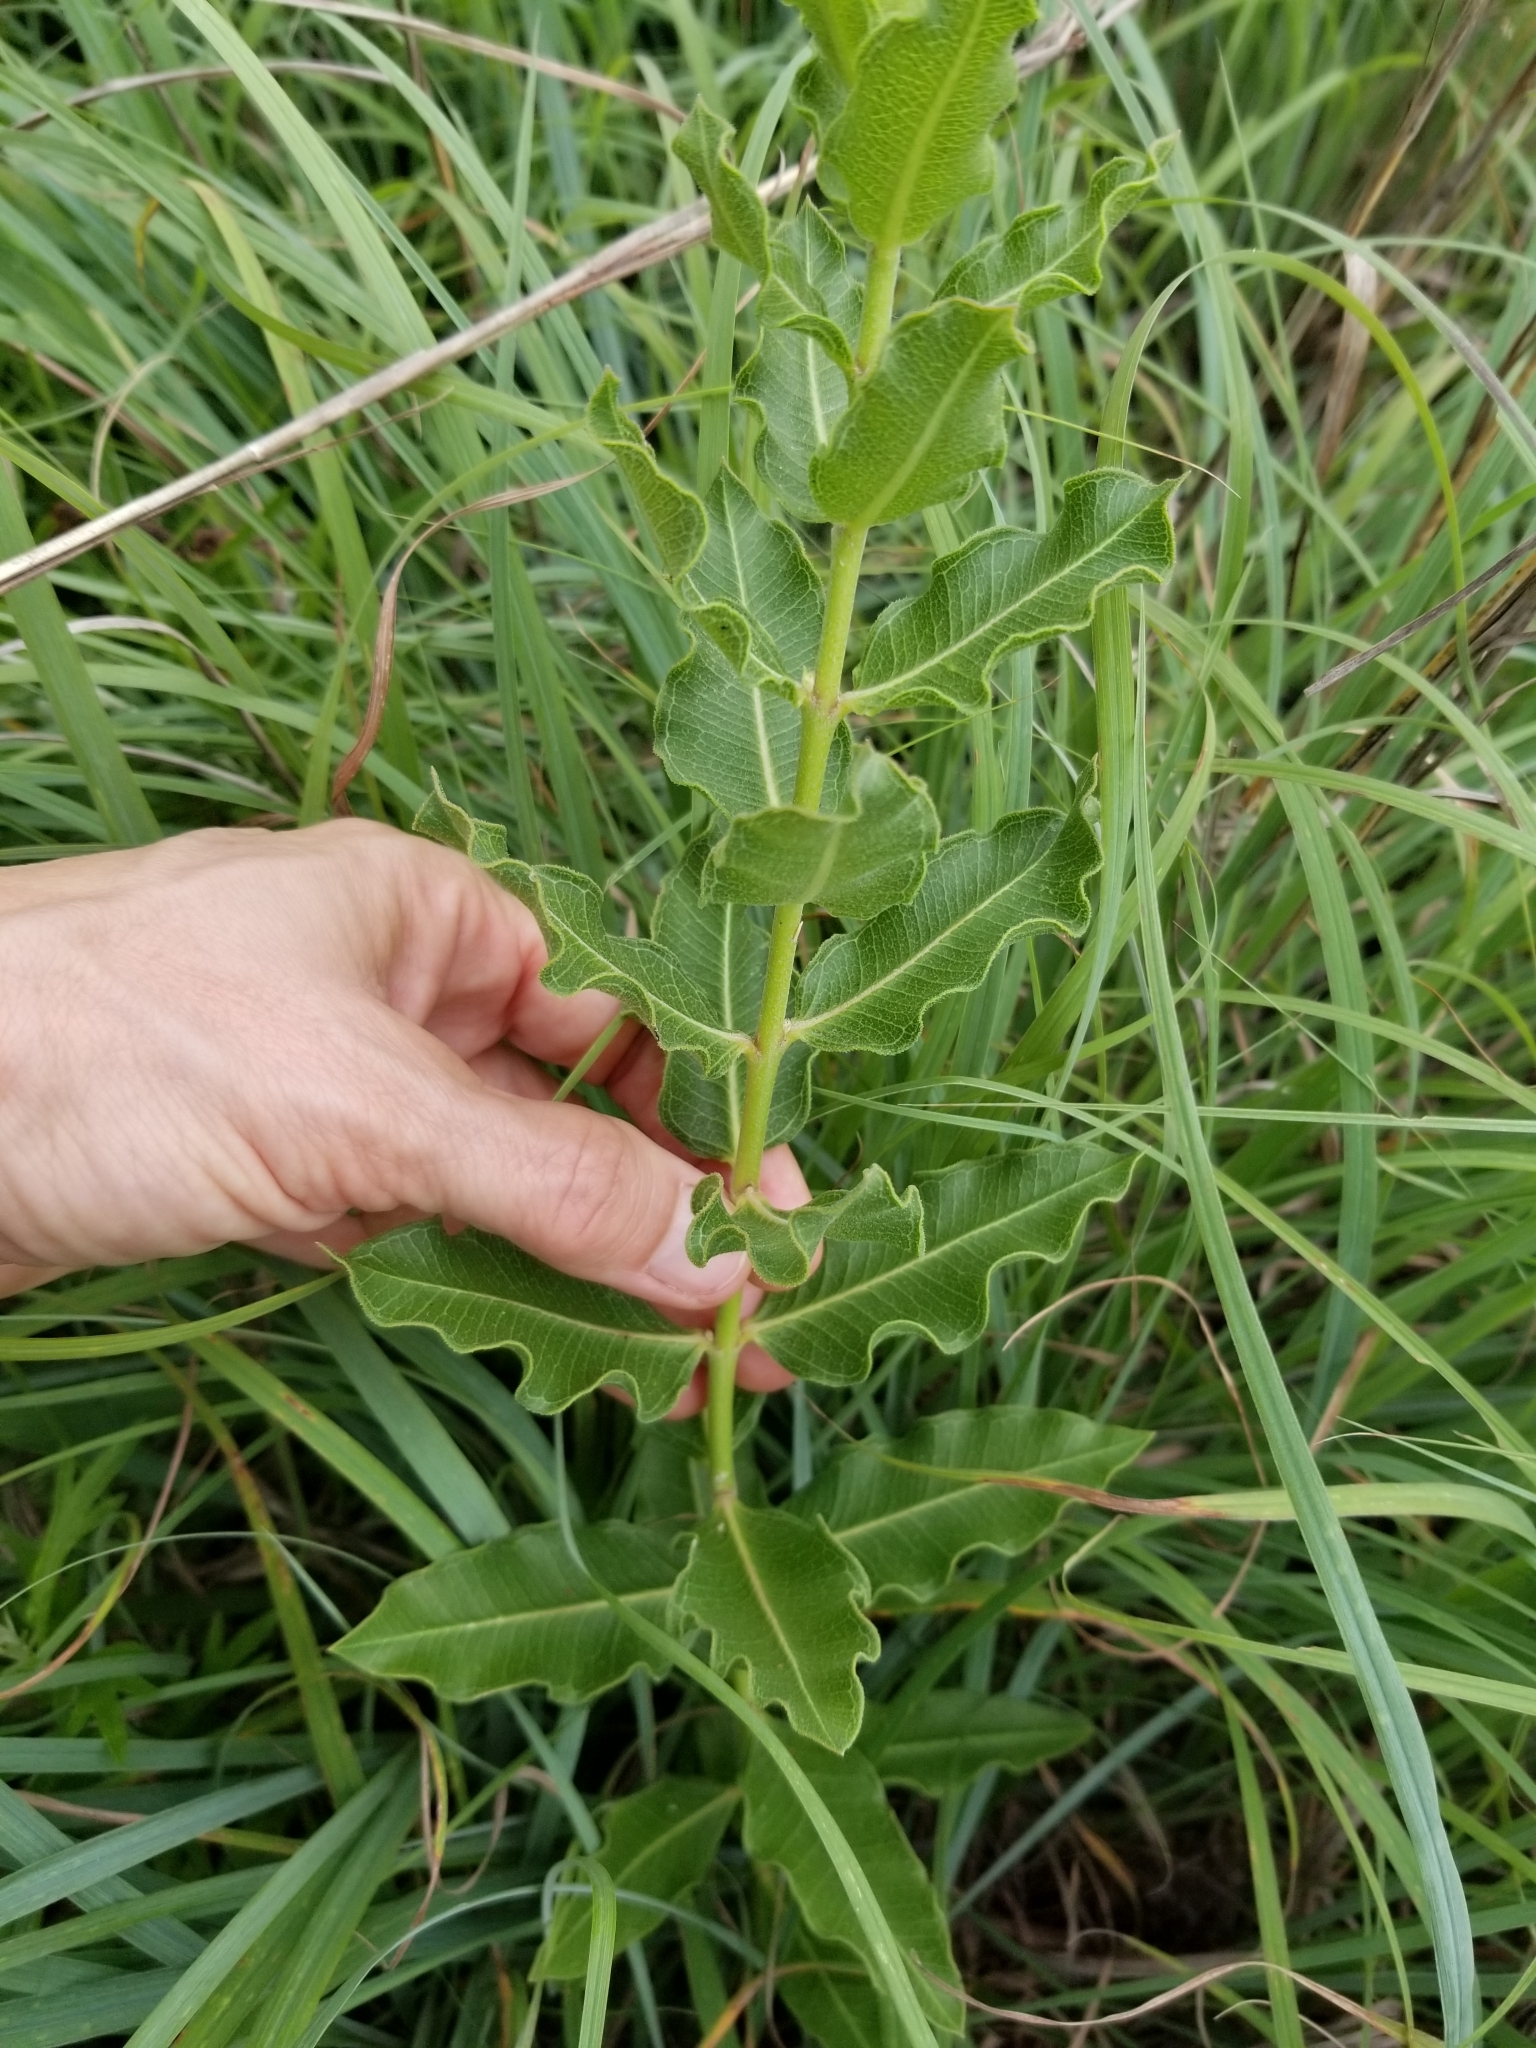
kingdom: Plantae
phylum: Tracheophyta
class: Magnoliopsida
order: Gentianales
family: Apocynaceae
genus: Asclepias
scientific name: Asclepias viridiflora
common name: Green comet milkweed
